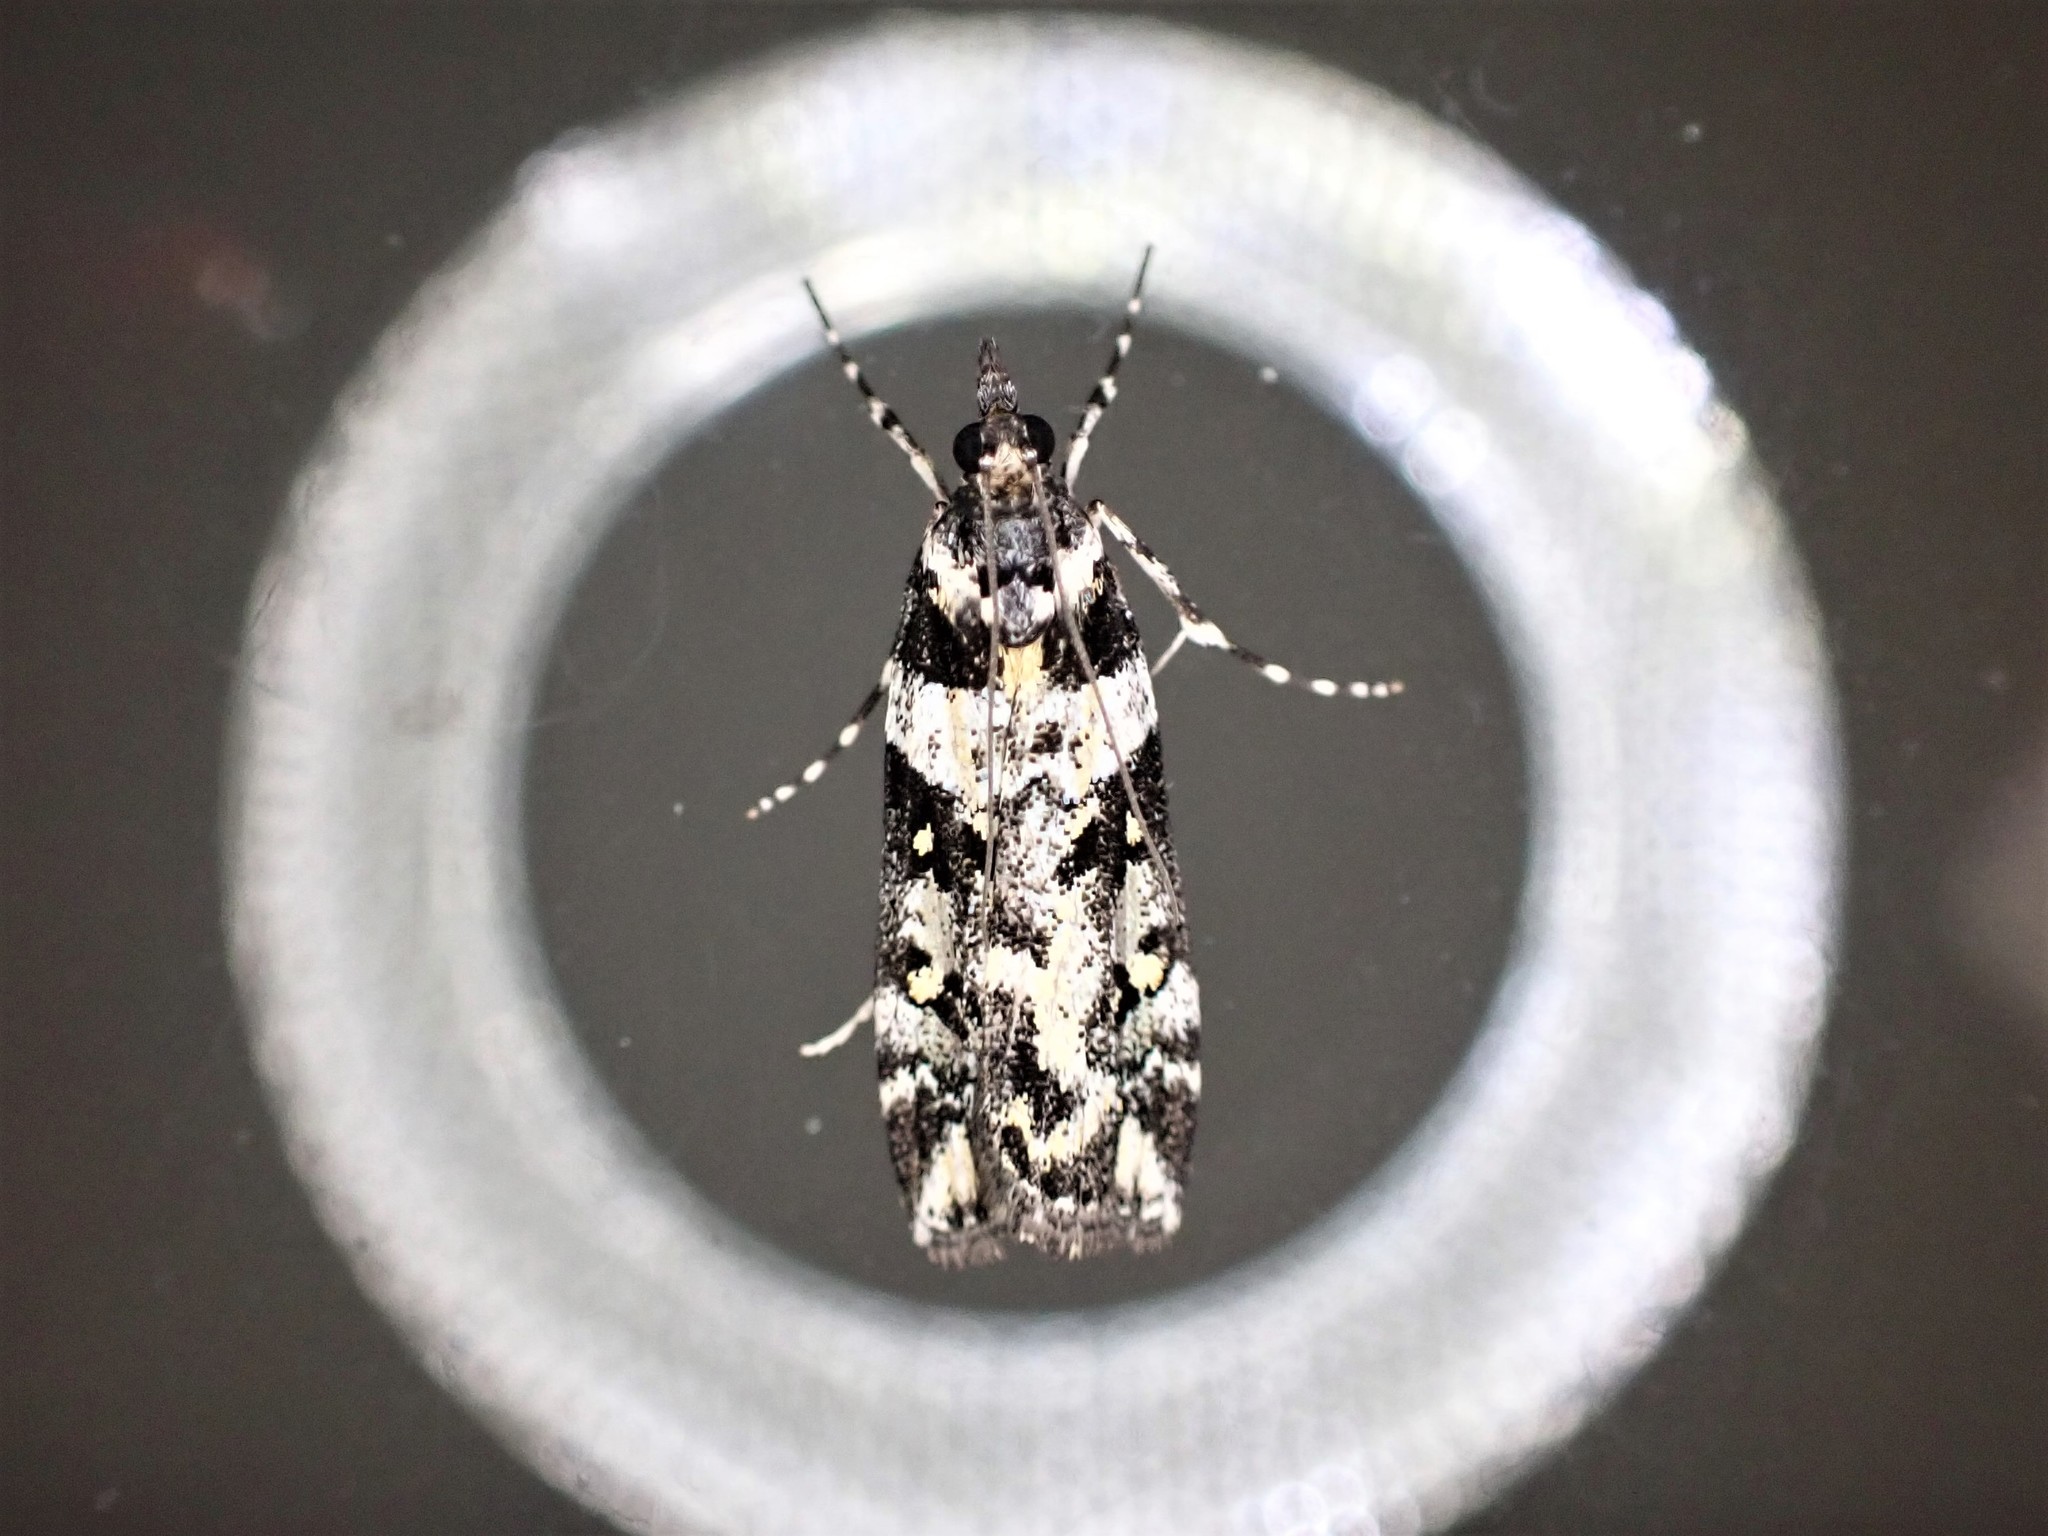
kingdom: Animalia
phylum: Arthropoda
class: Insecta
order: Lepidoptera
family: Crambidae
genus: Eudonia
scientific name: Eudonia diphtheralis
